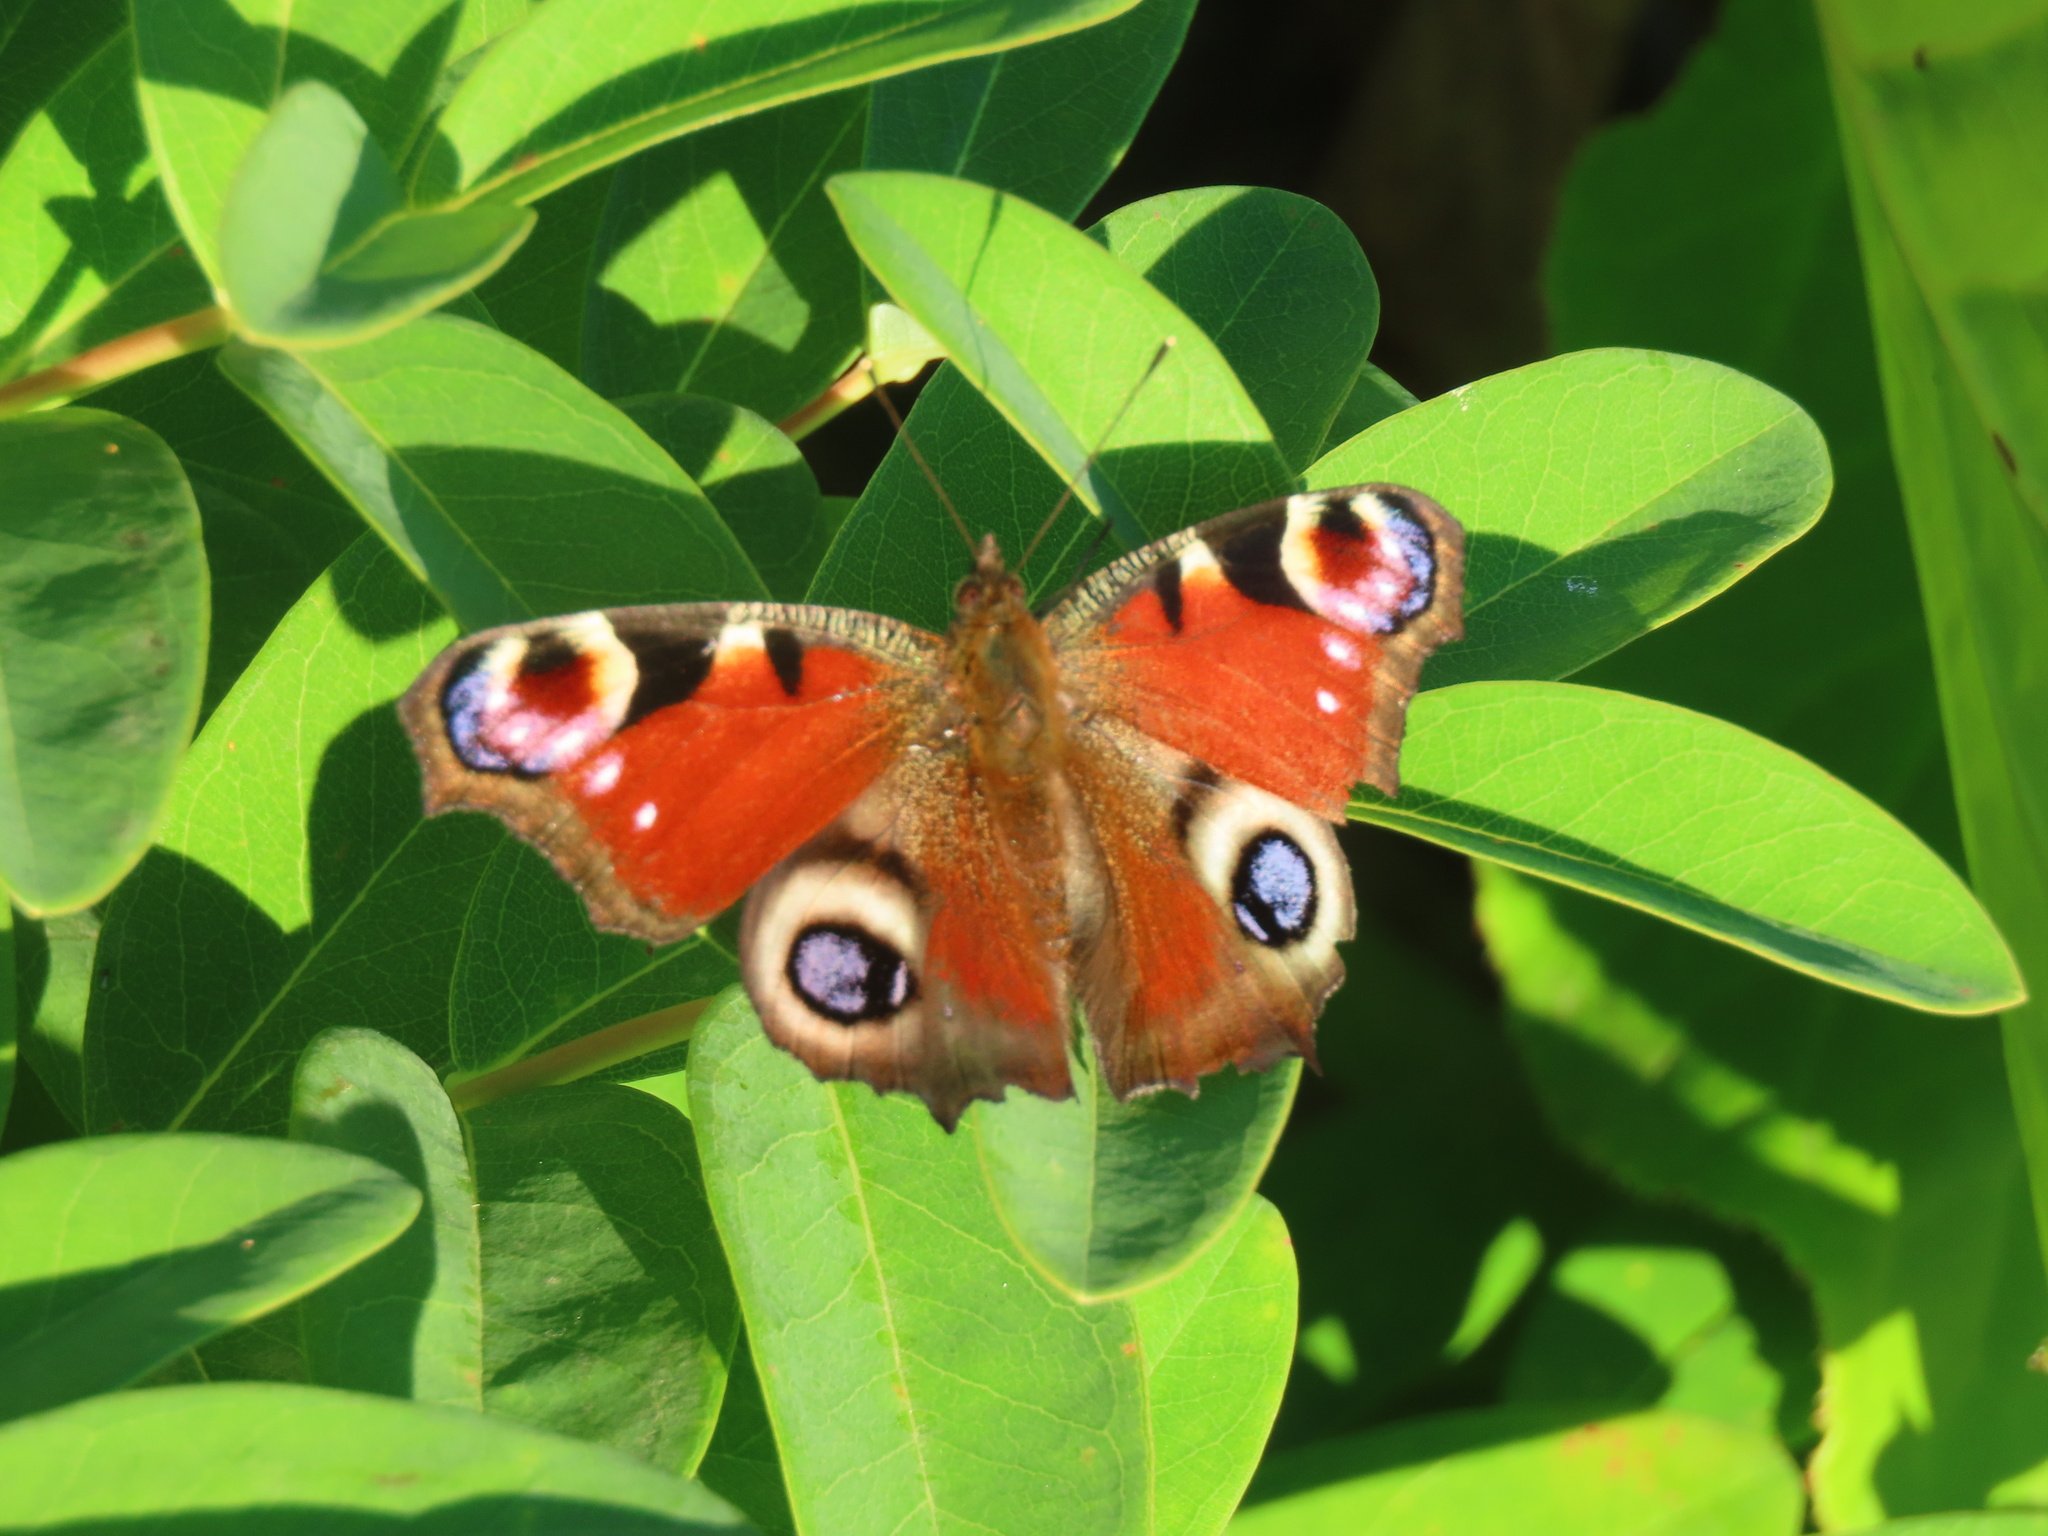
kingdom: Animalia
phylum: Arthropoda
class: Insecta
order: Lepidoptera
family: Nymphalidae
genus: Aglais
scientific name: Aglais io
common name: Peacock
